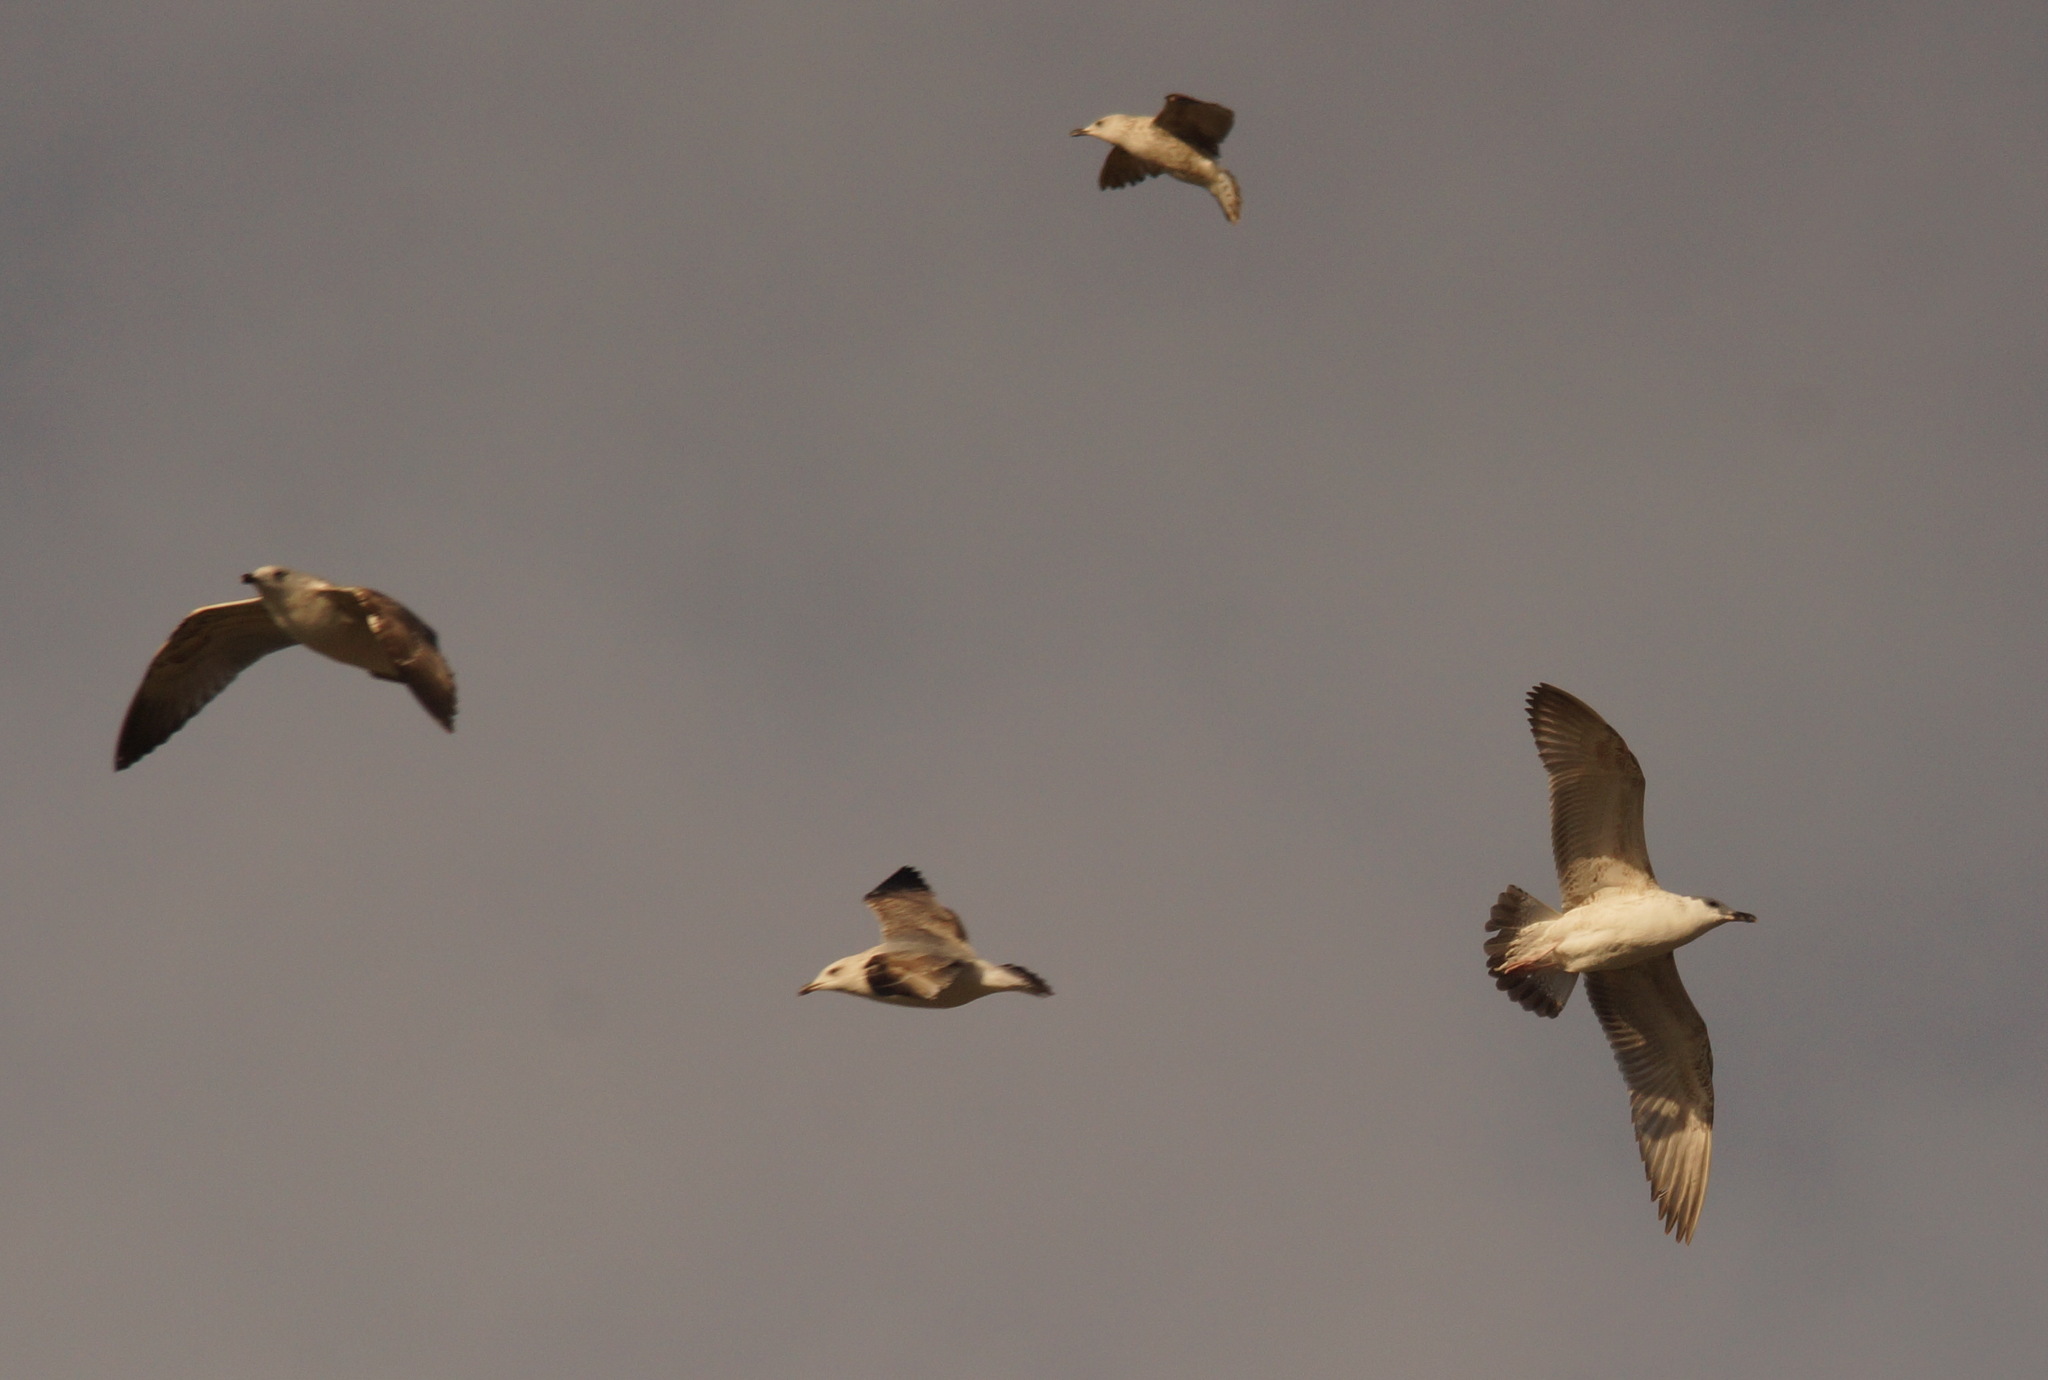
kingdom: Animalia
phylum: Chordata
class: Aves
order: Charadriiformes
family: Laridae
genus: Larus
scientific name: Larus michahellis
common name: Yellow-legged gull
